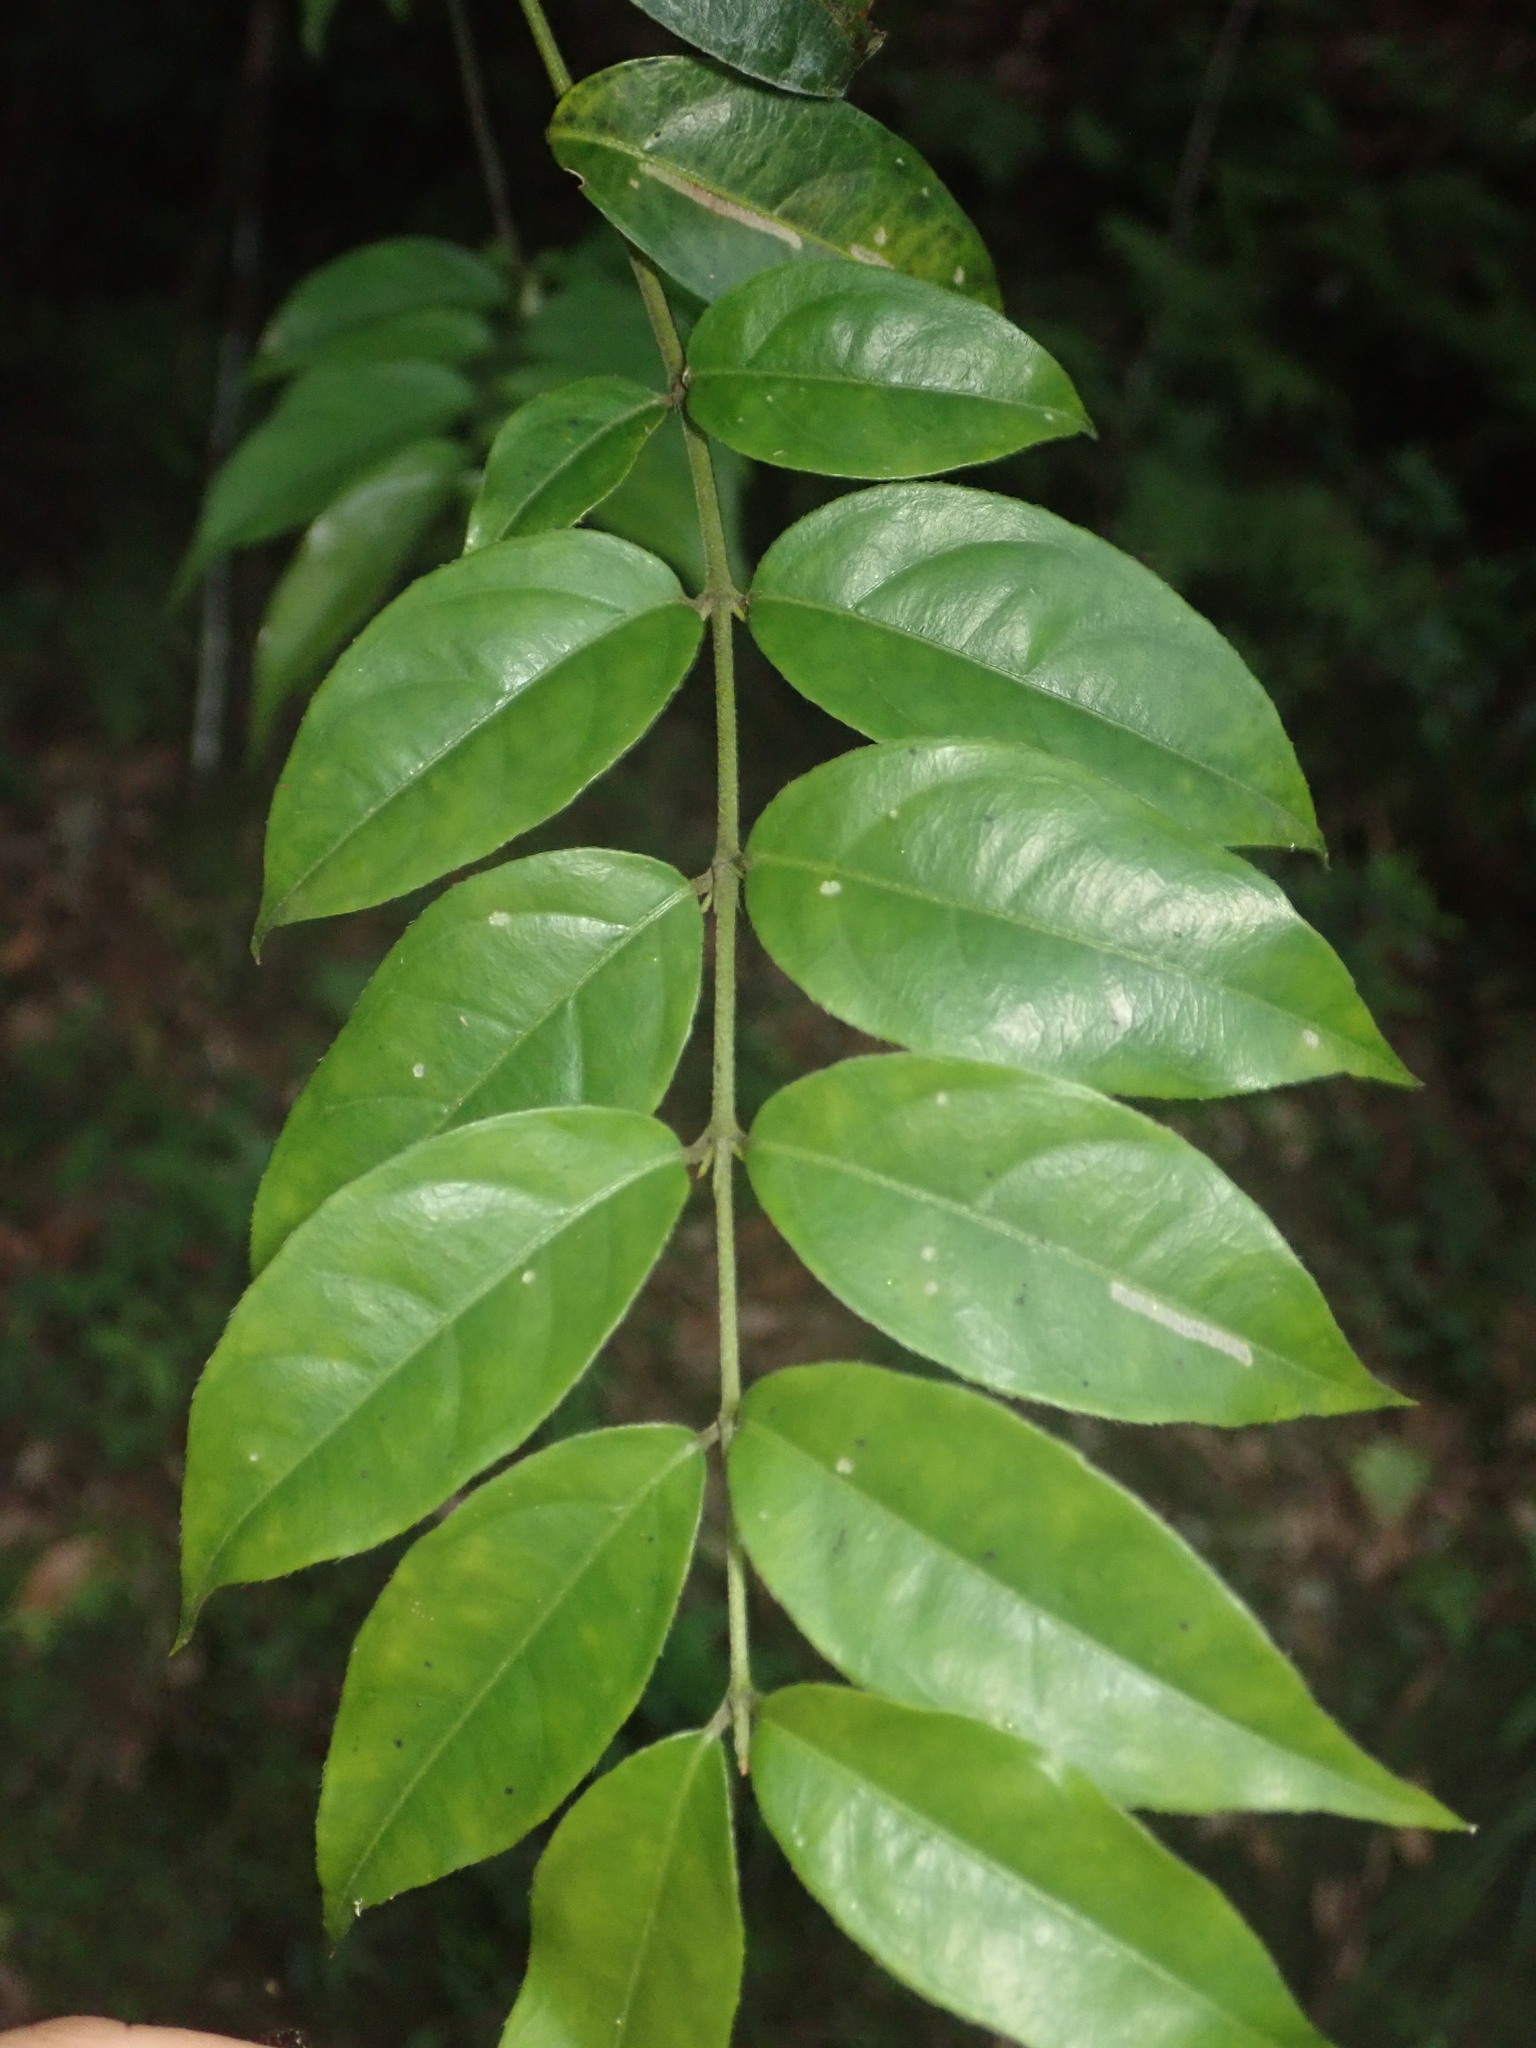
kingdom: Plantae
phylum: Tracheophyta
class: Magnoliopsida
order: Gentianales
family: Rubiaceae
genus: Coptosapelta
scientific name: Coptosapelta diffusa
